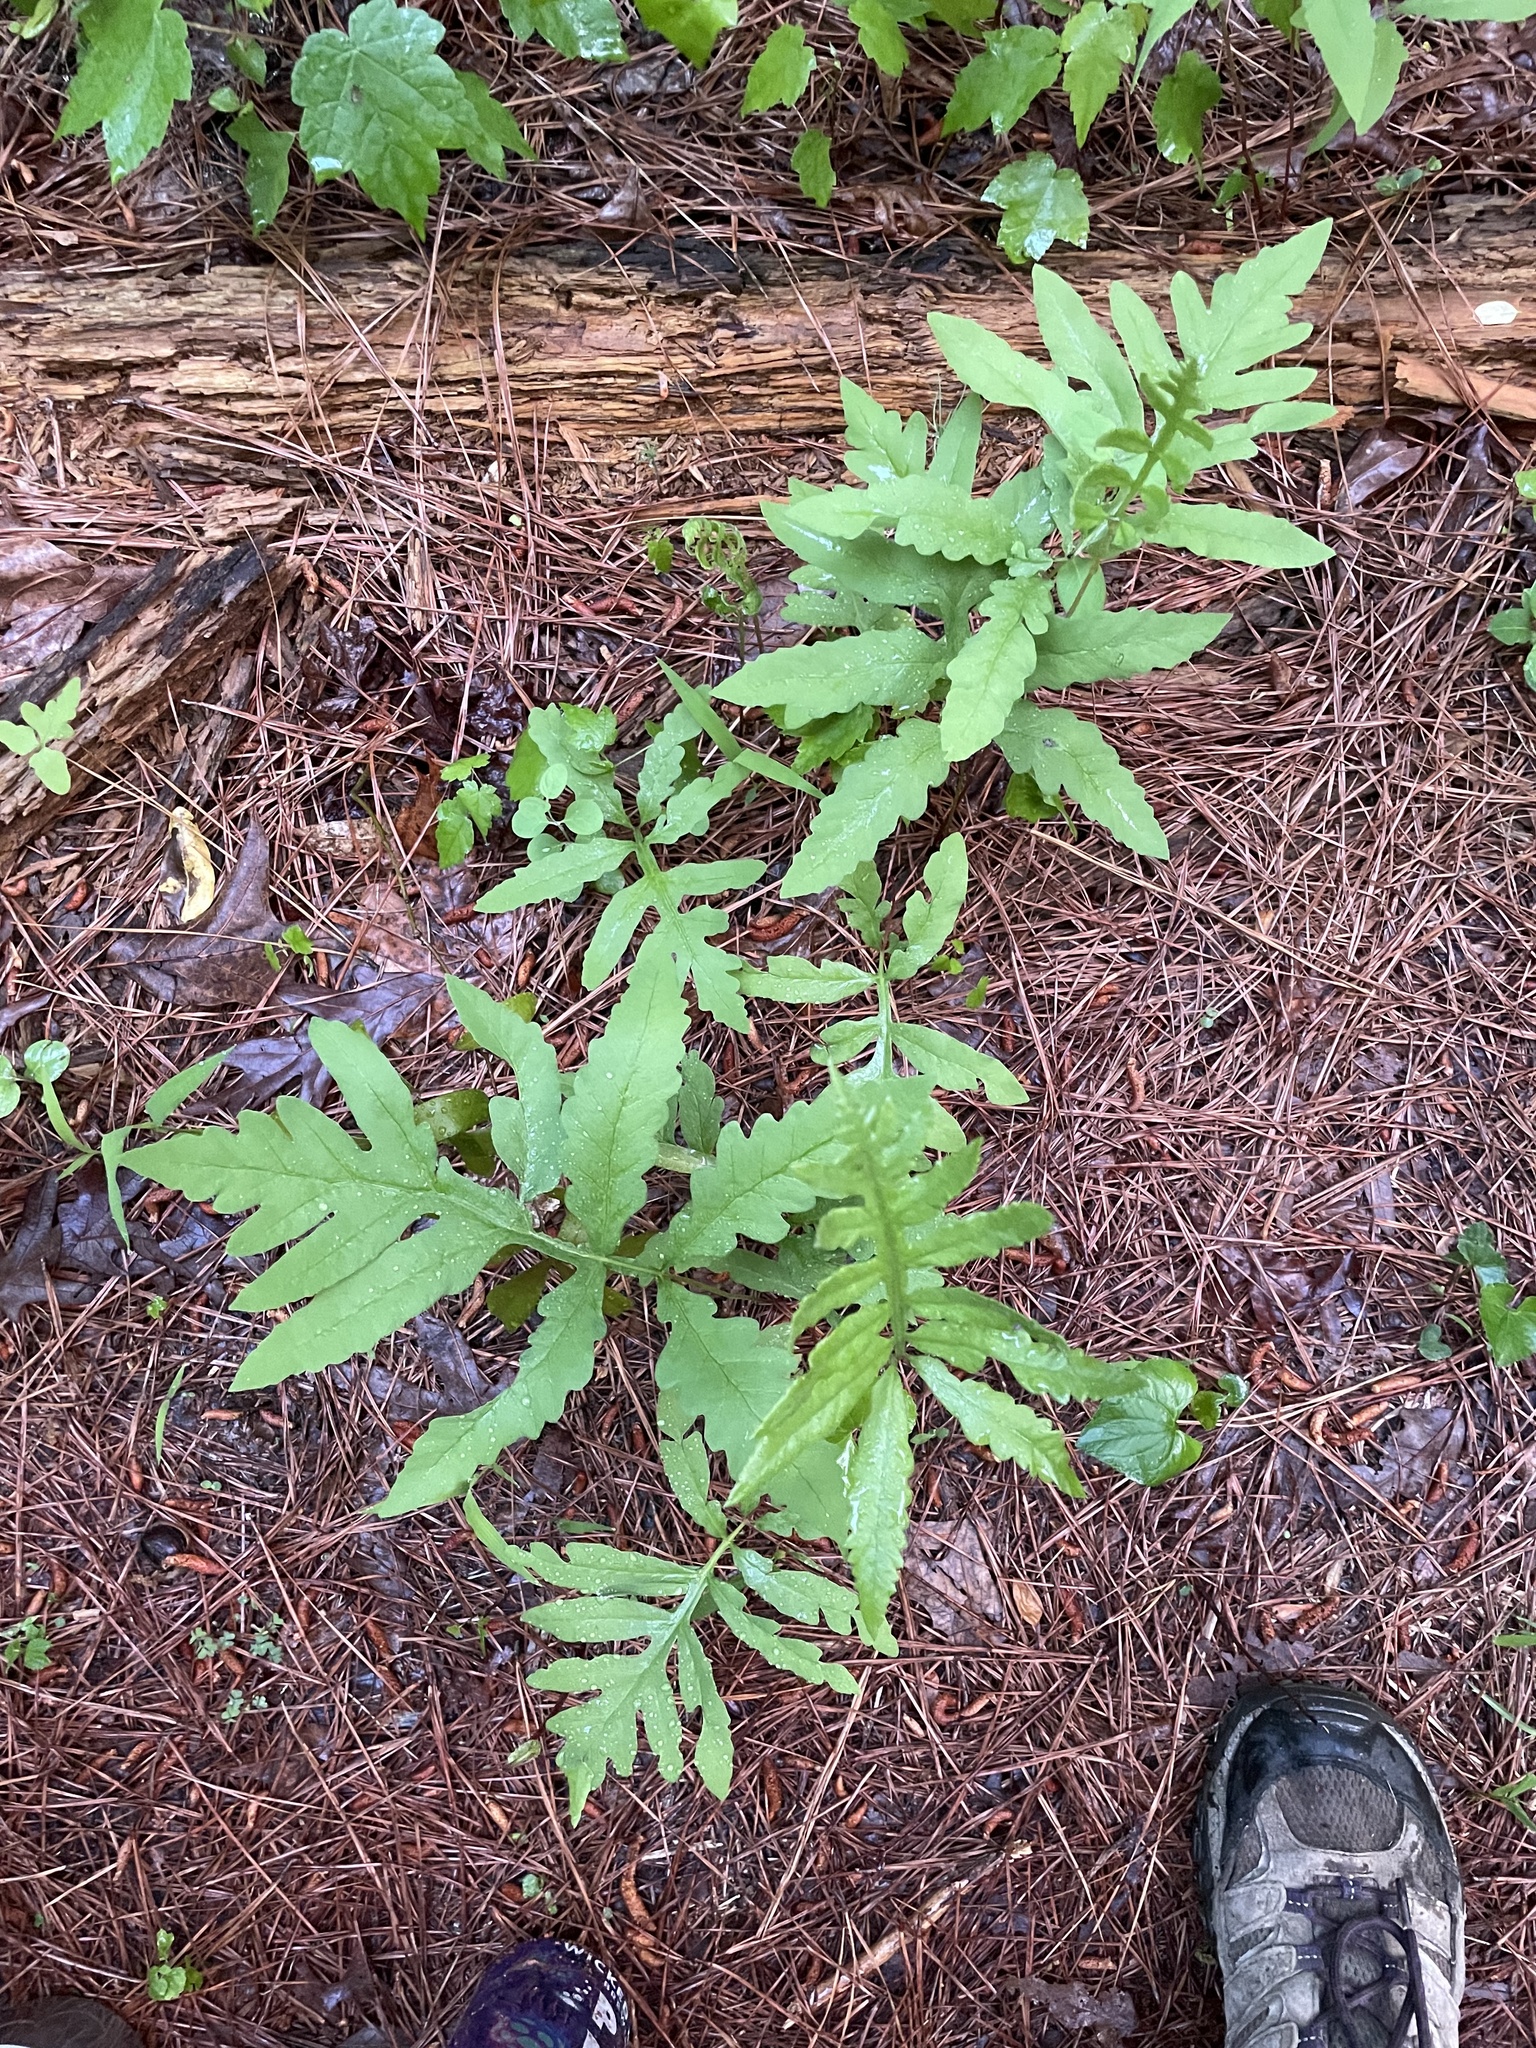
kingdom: Plantae
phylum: Tracheophyta
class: Polypodiopsida
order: Polypodiales
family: Onocleaceae
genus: Onoclea
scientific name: Onoclea sensibilis
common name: Sensitive fern
